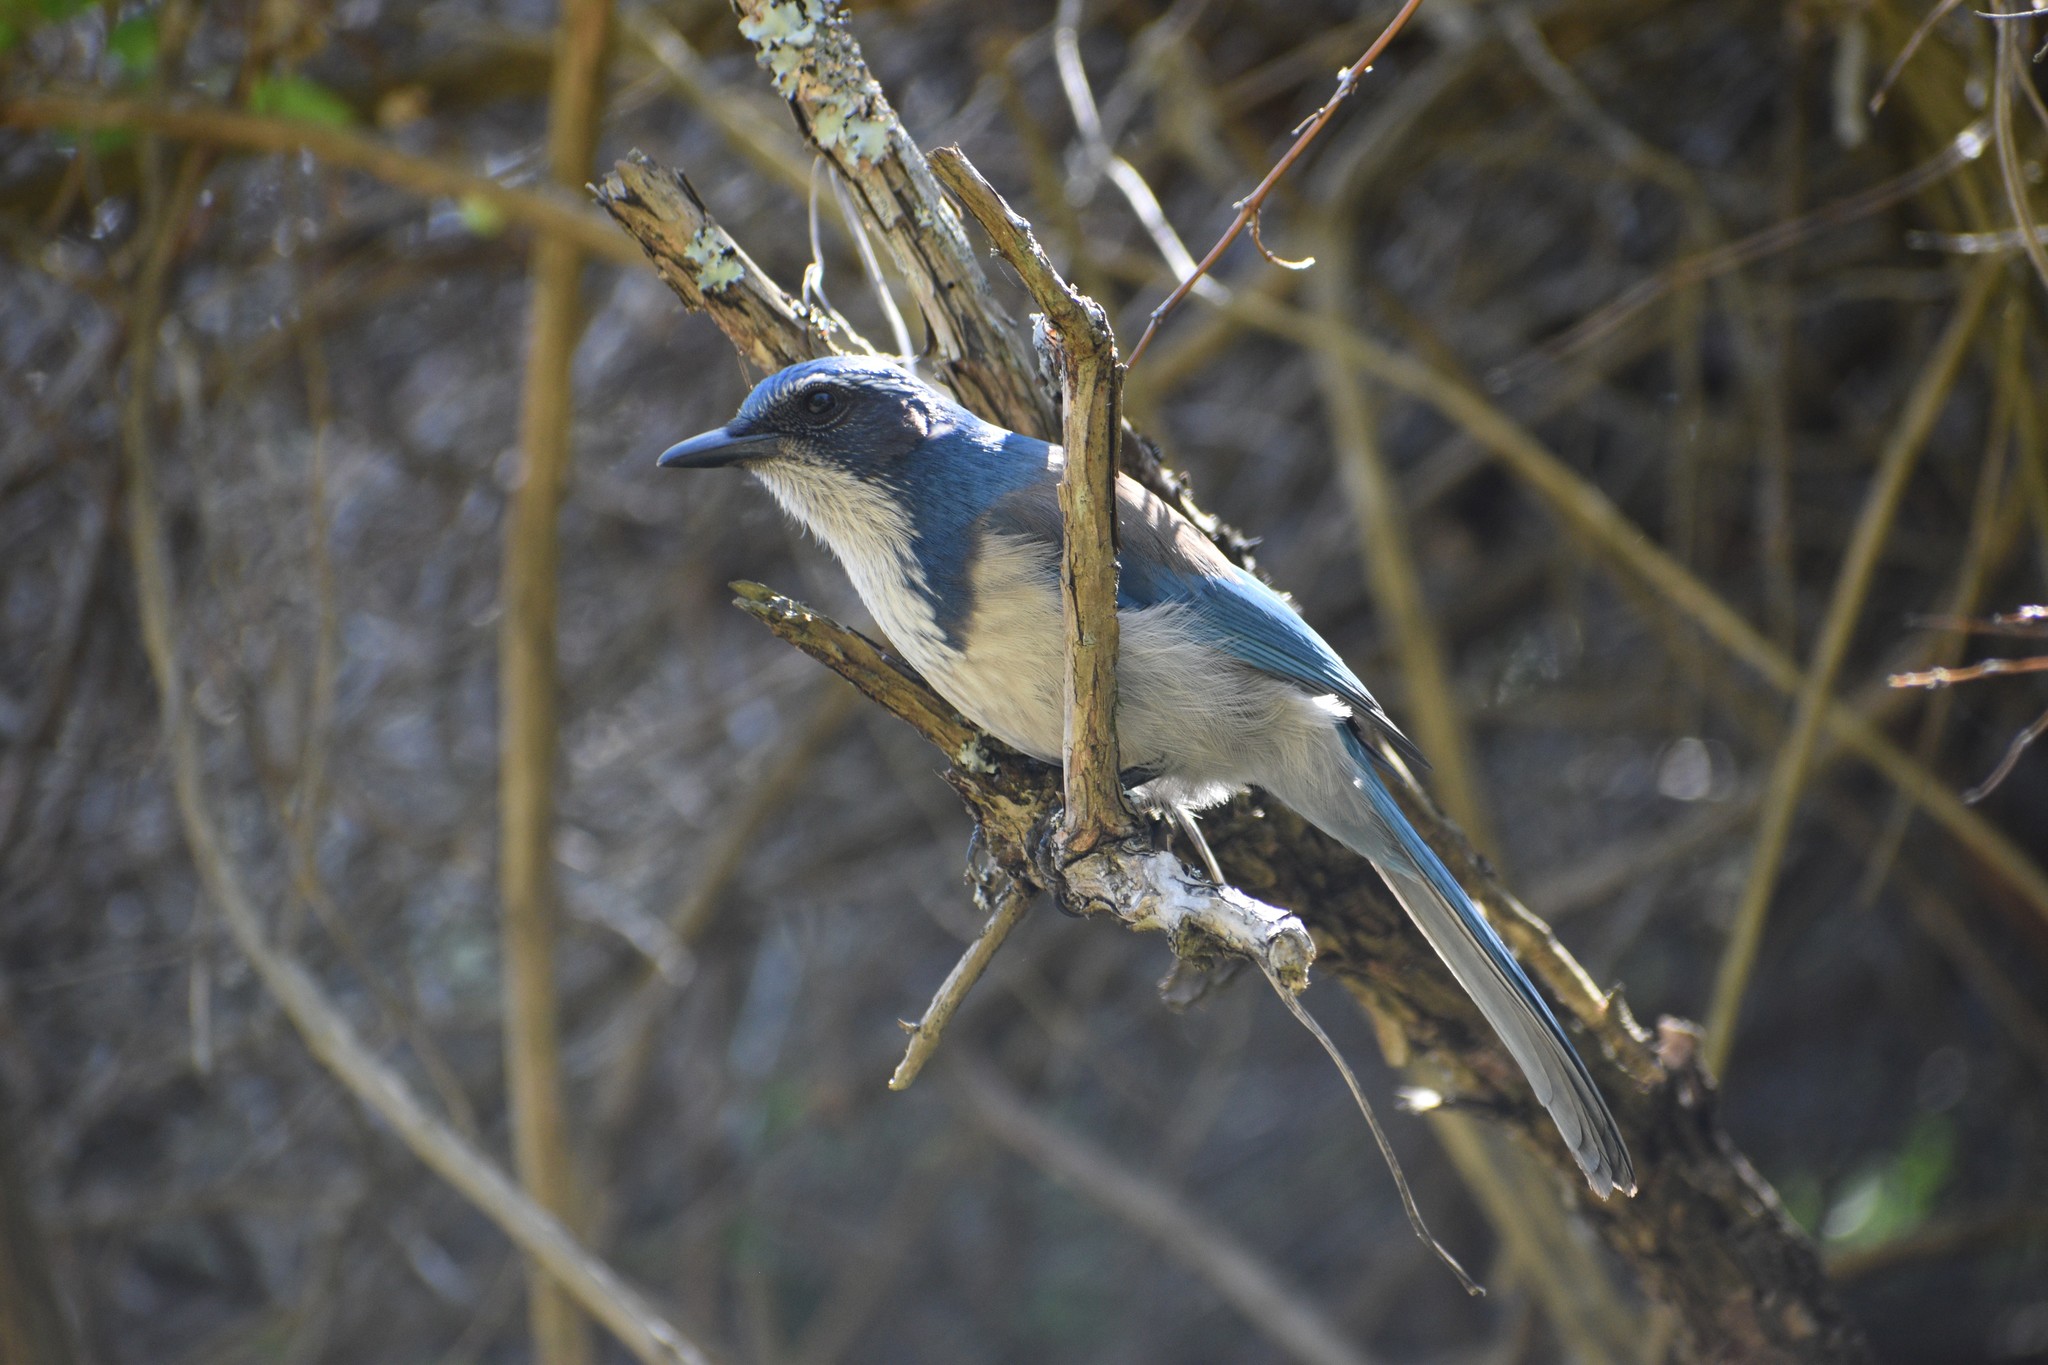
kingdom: Animalia
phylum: Chordata
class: Aves
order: Passeriformes
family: Corvidae
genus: Aphelocoma
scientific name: Aphelocoma californica
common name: California scrub-jay
